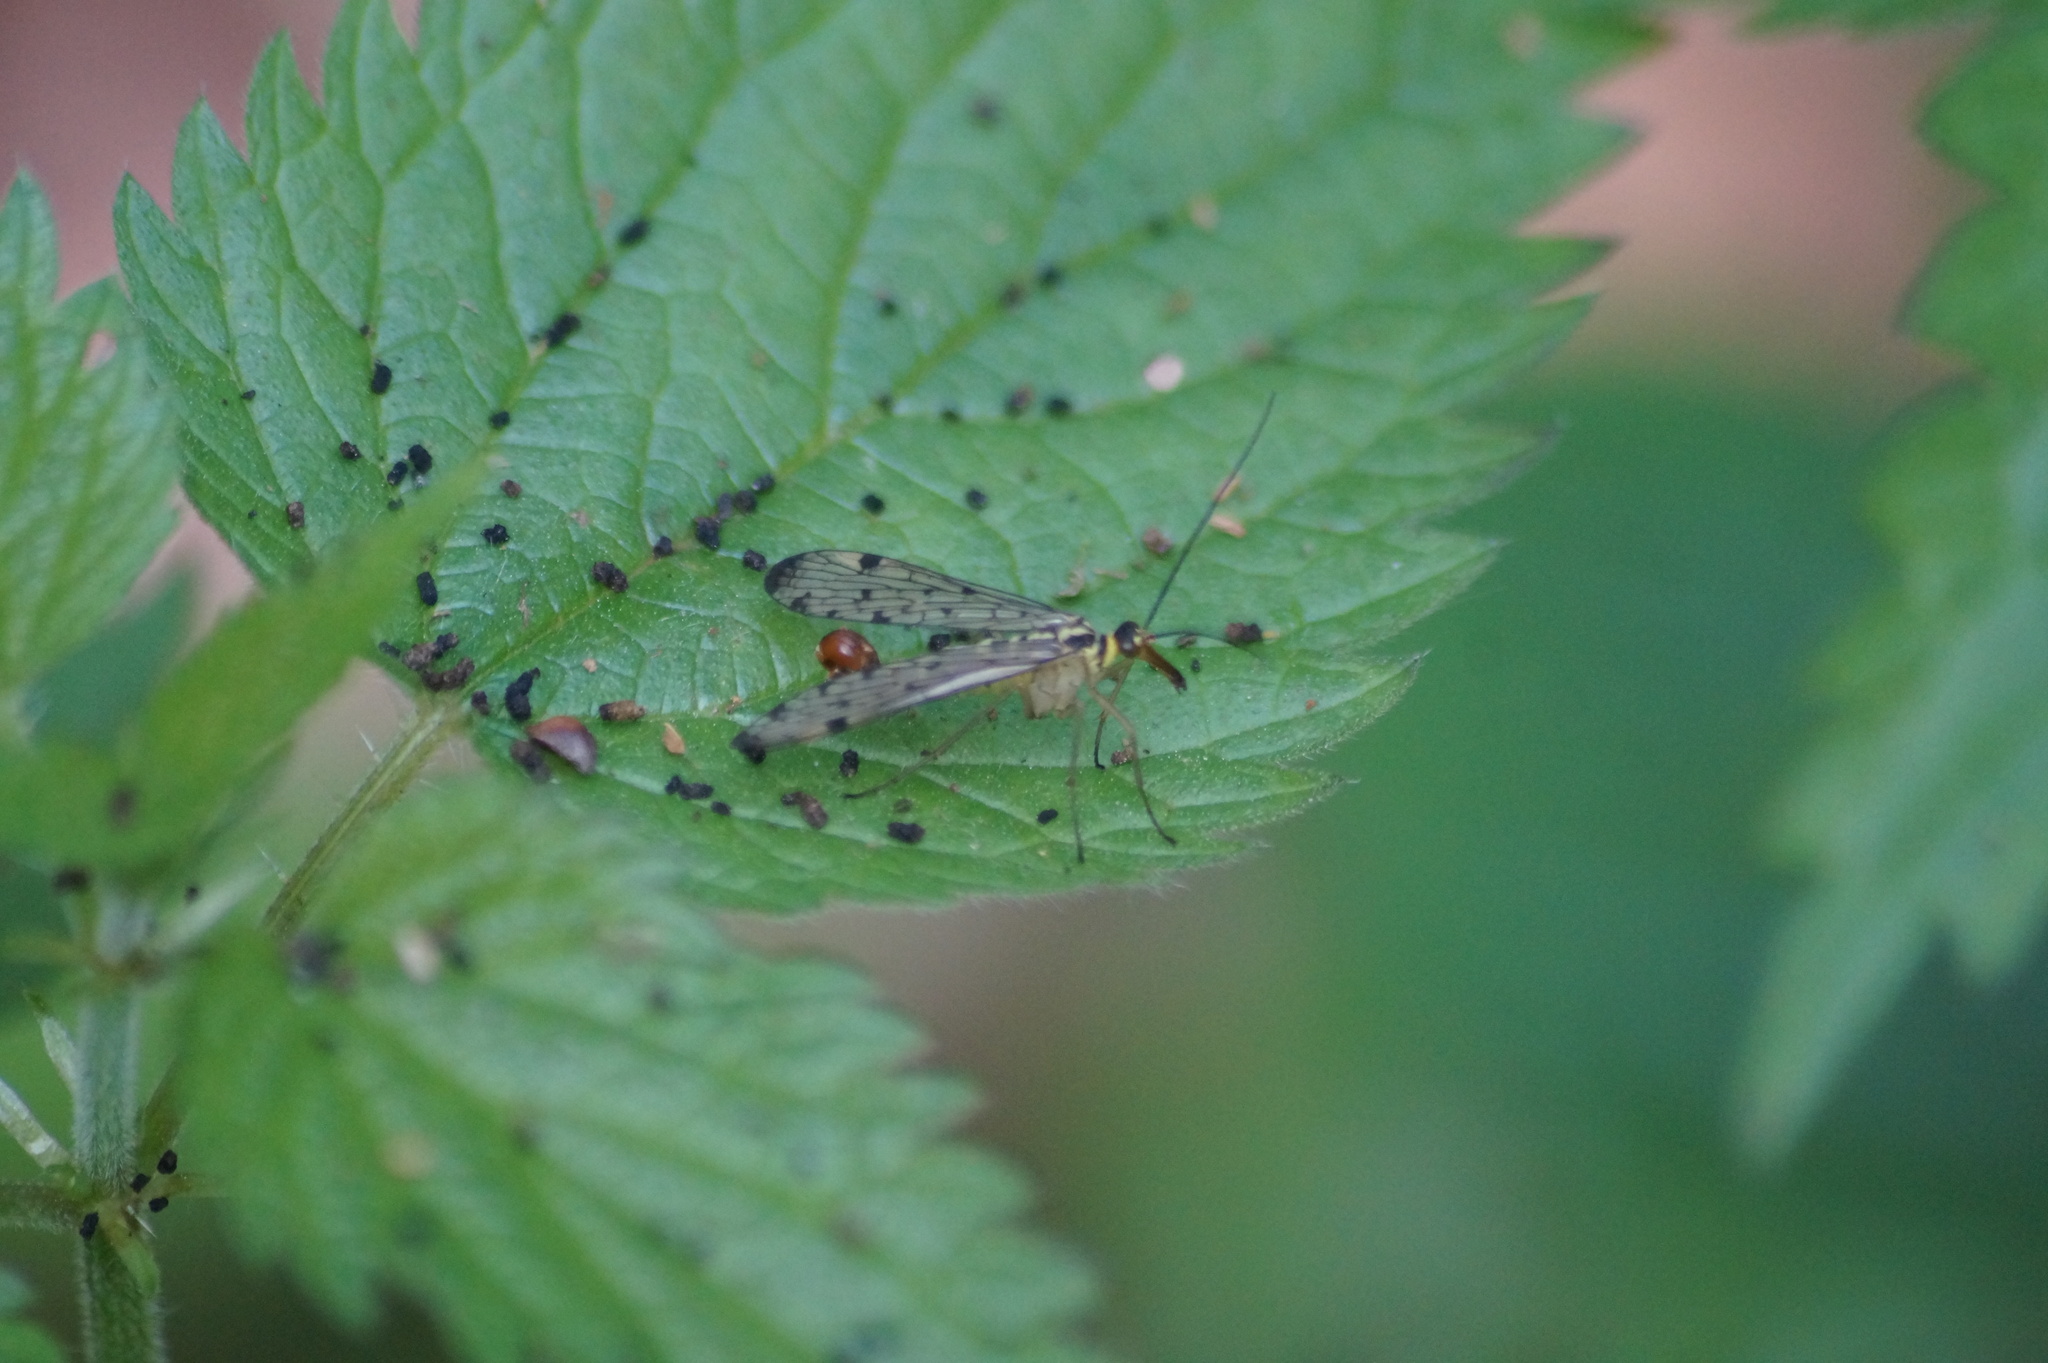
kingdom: Animalia
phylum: Arthropoda
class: Insecta
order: Mecoptera
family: Panorpidae
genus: Panorpa
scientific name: Panorpa germanica
